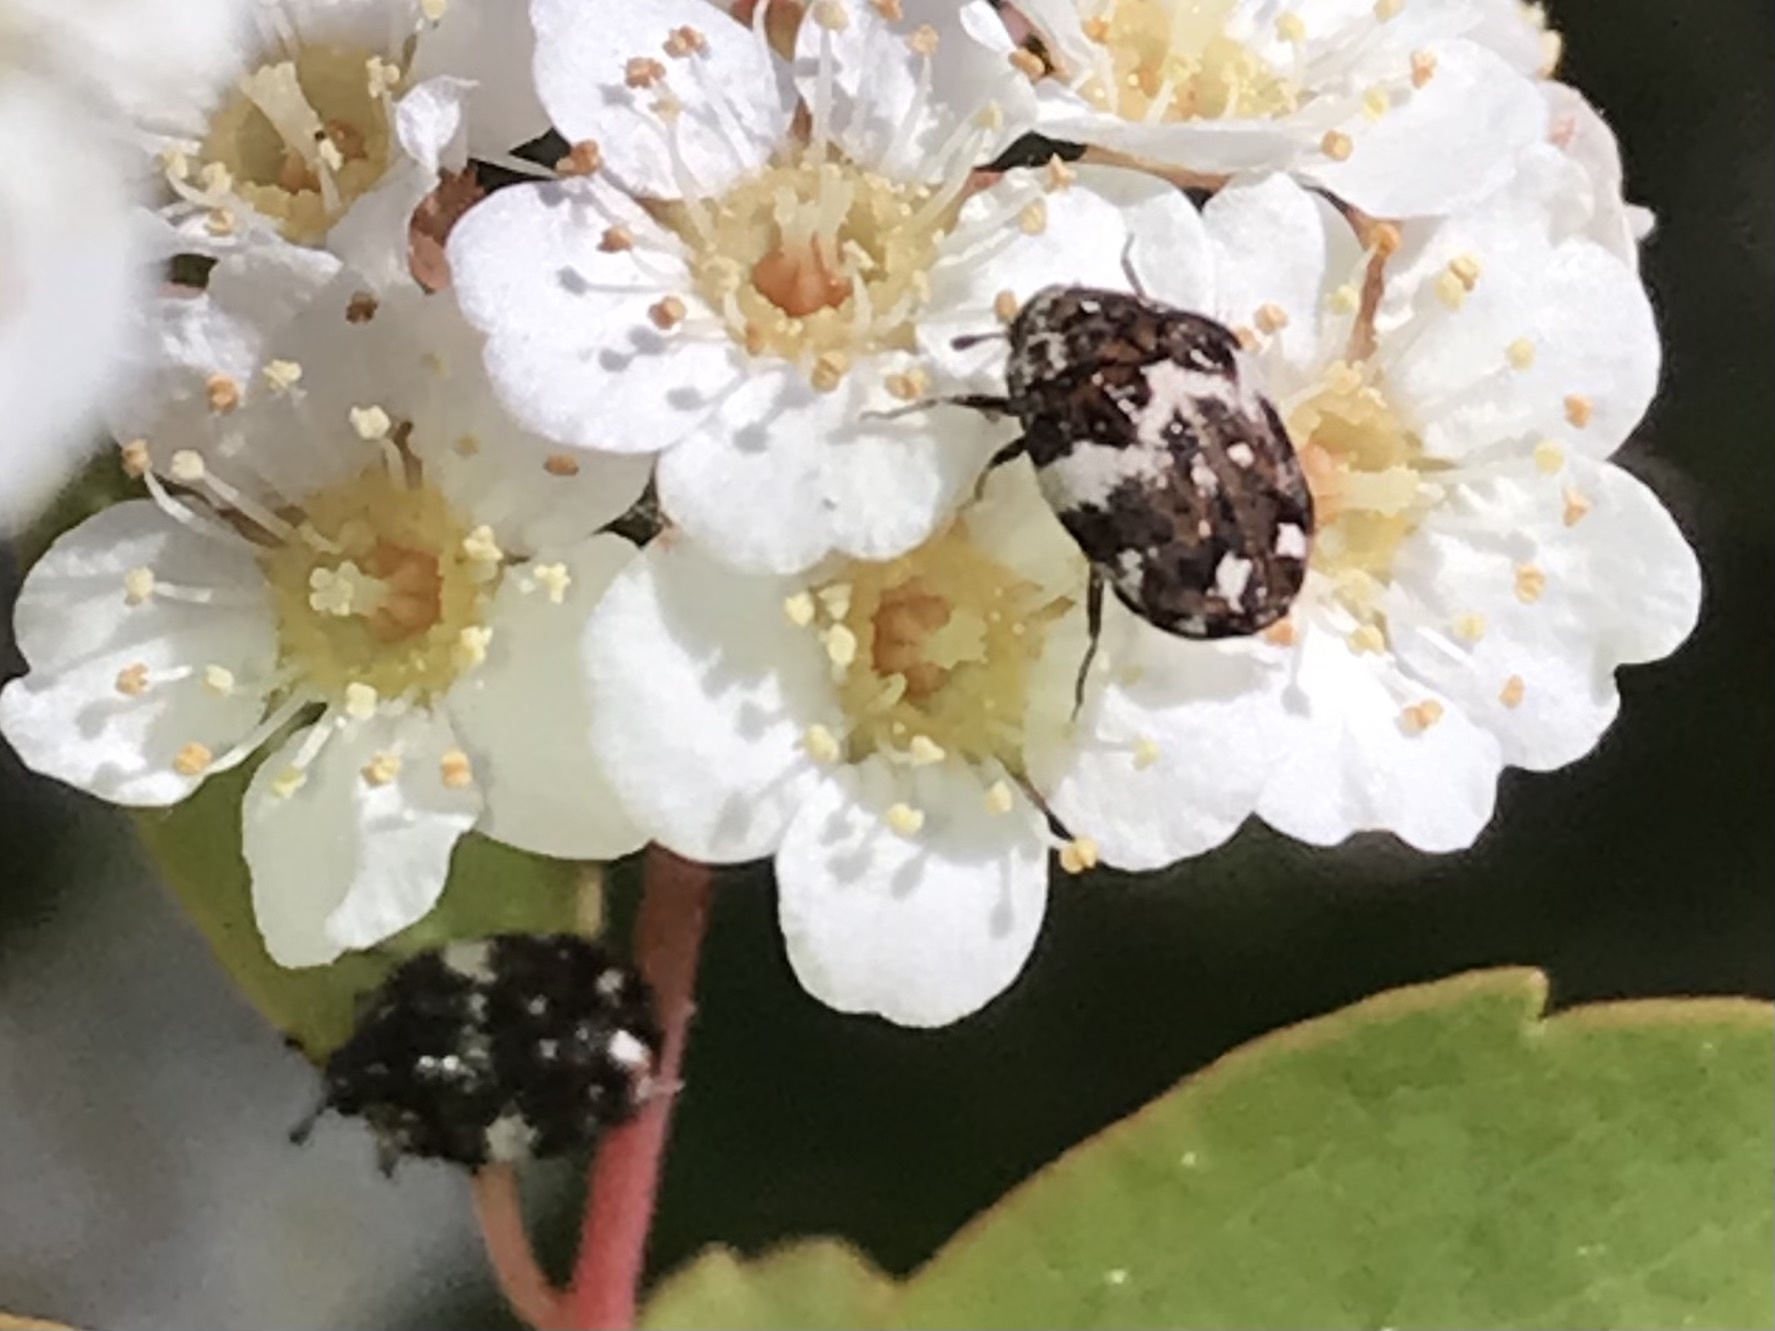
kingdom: Animalia
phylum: Arthropoda
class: Insecta
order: Coleoptera
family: Dermestidae
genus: Anthrenus
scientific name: Anthrenus angustefasciatus
